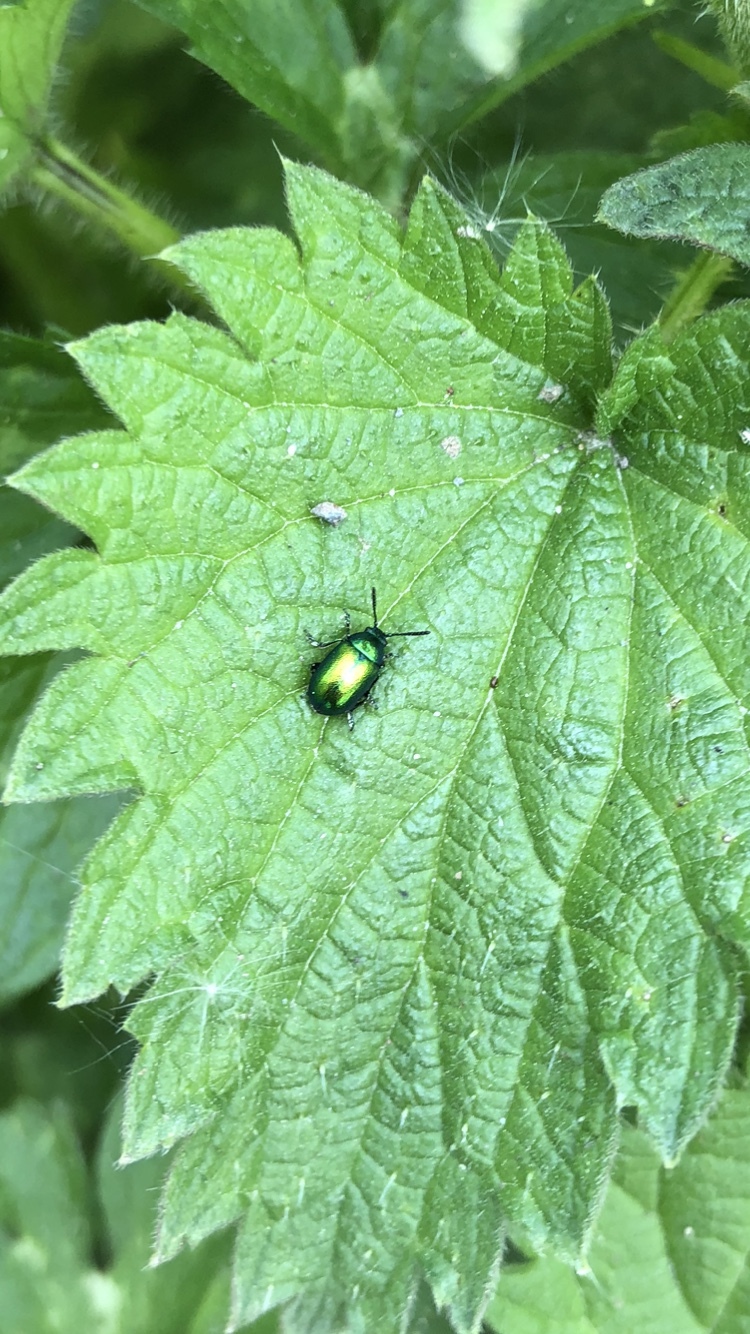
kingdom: Animalia
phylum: Arthropoda
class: Insecta
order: Coleoptera
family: Chrysomelidae
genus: Gastrophysa
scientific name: Gastrophysa viridula
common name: Green dock beetle
